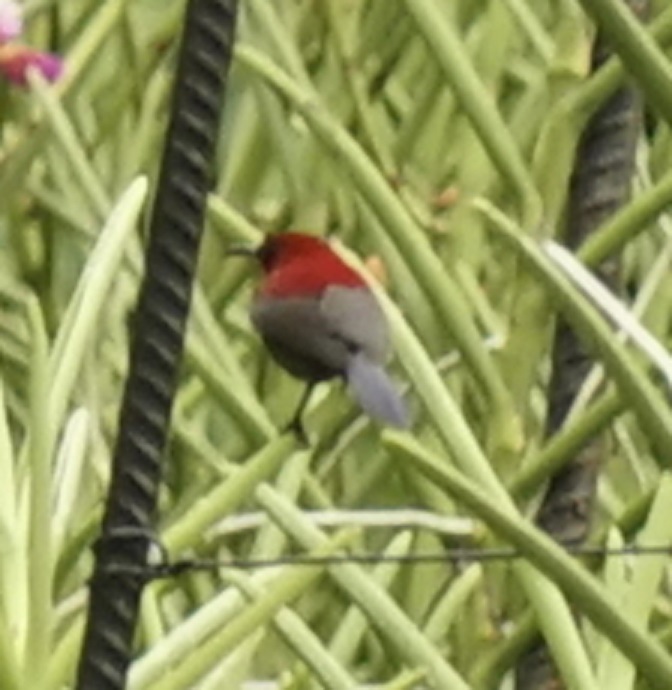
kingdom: Animalia
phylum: Chordata
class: Aves
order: Passeriformes
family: Nectariniidae
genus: Aethopyga
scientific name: Aethopyga siparaja
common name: Crimson sunbird
